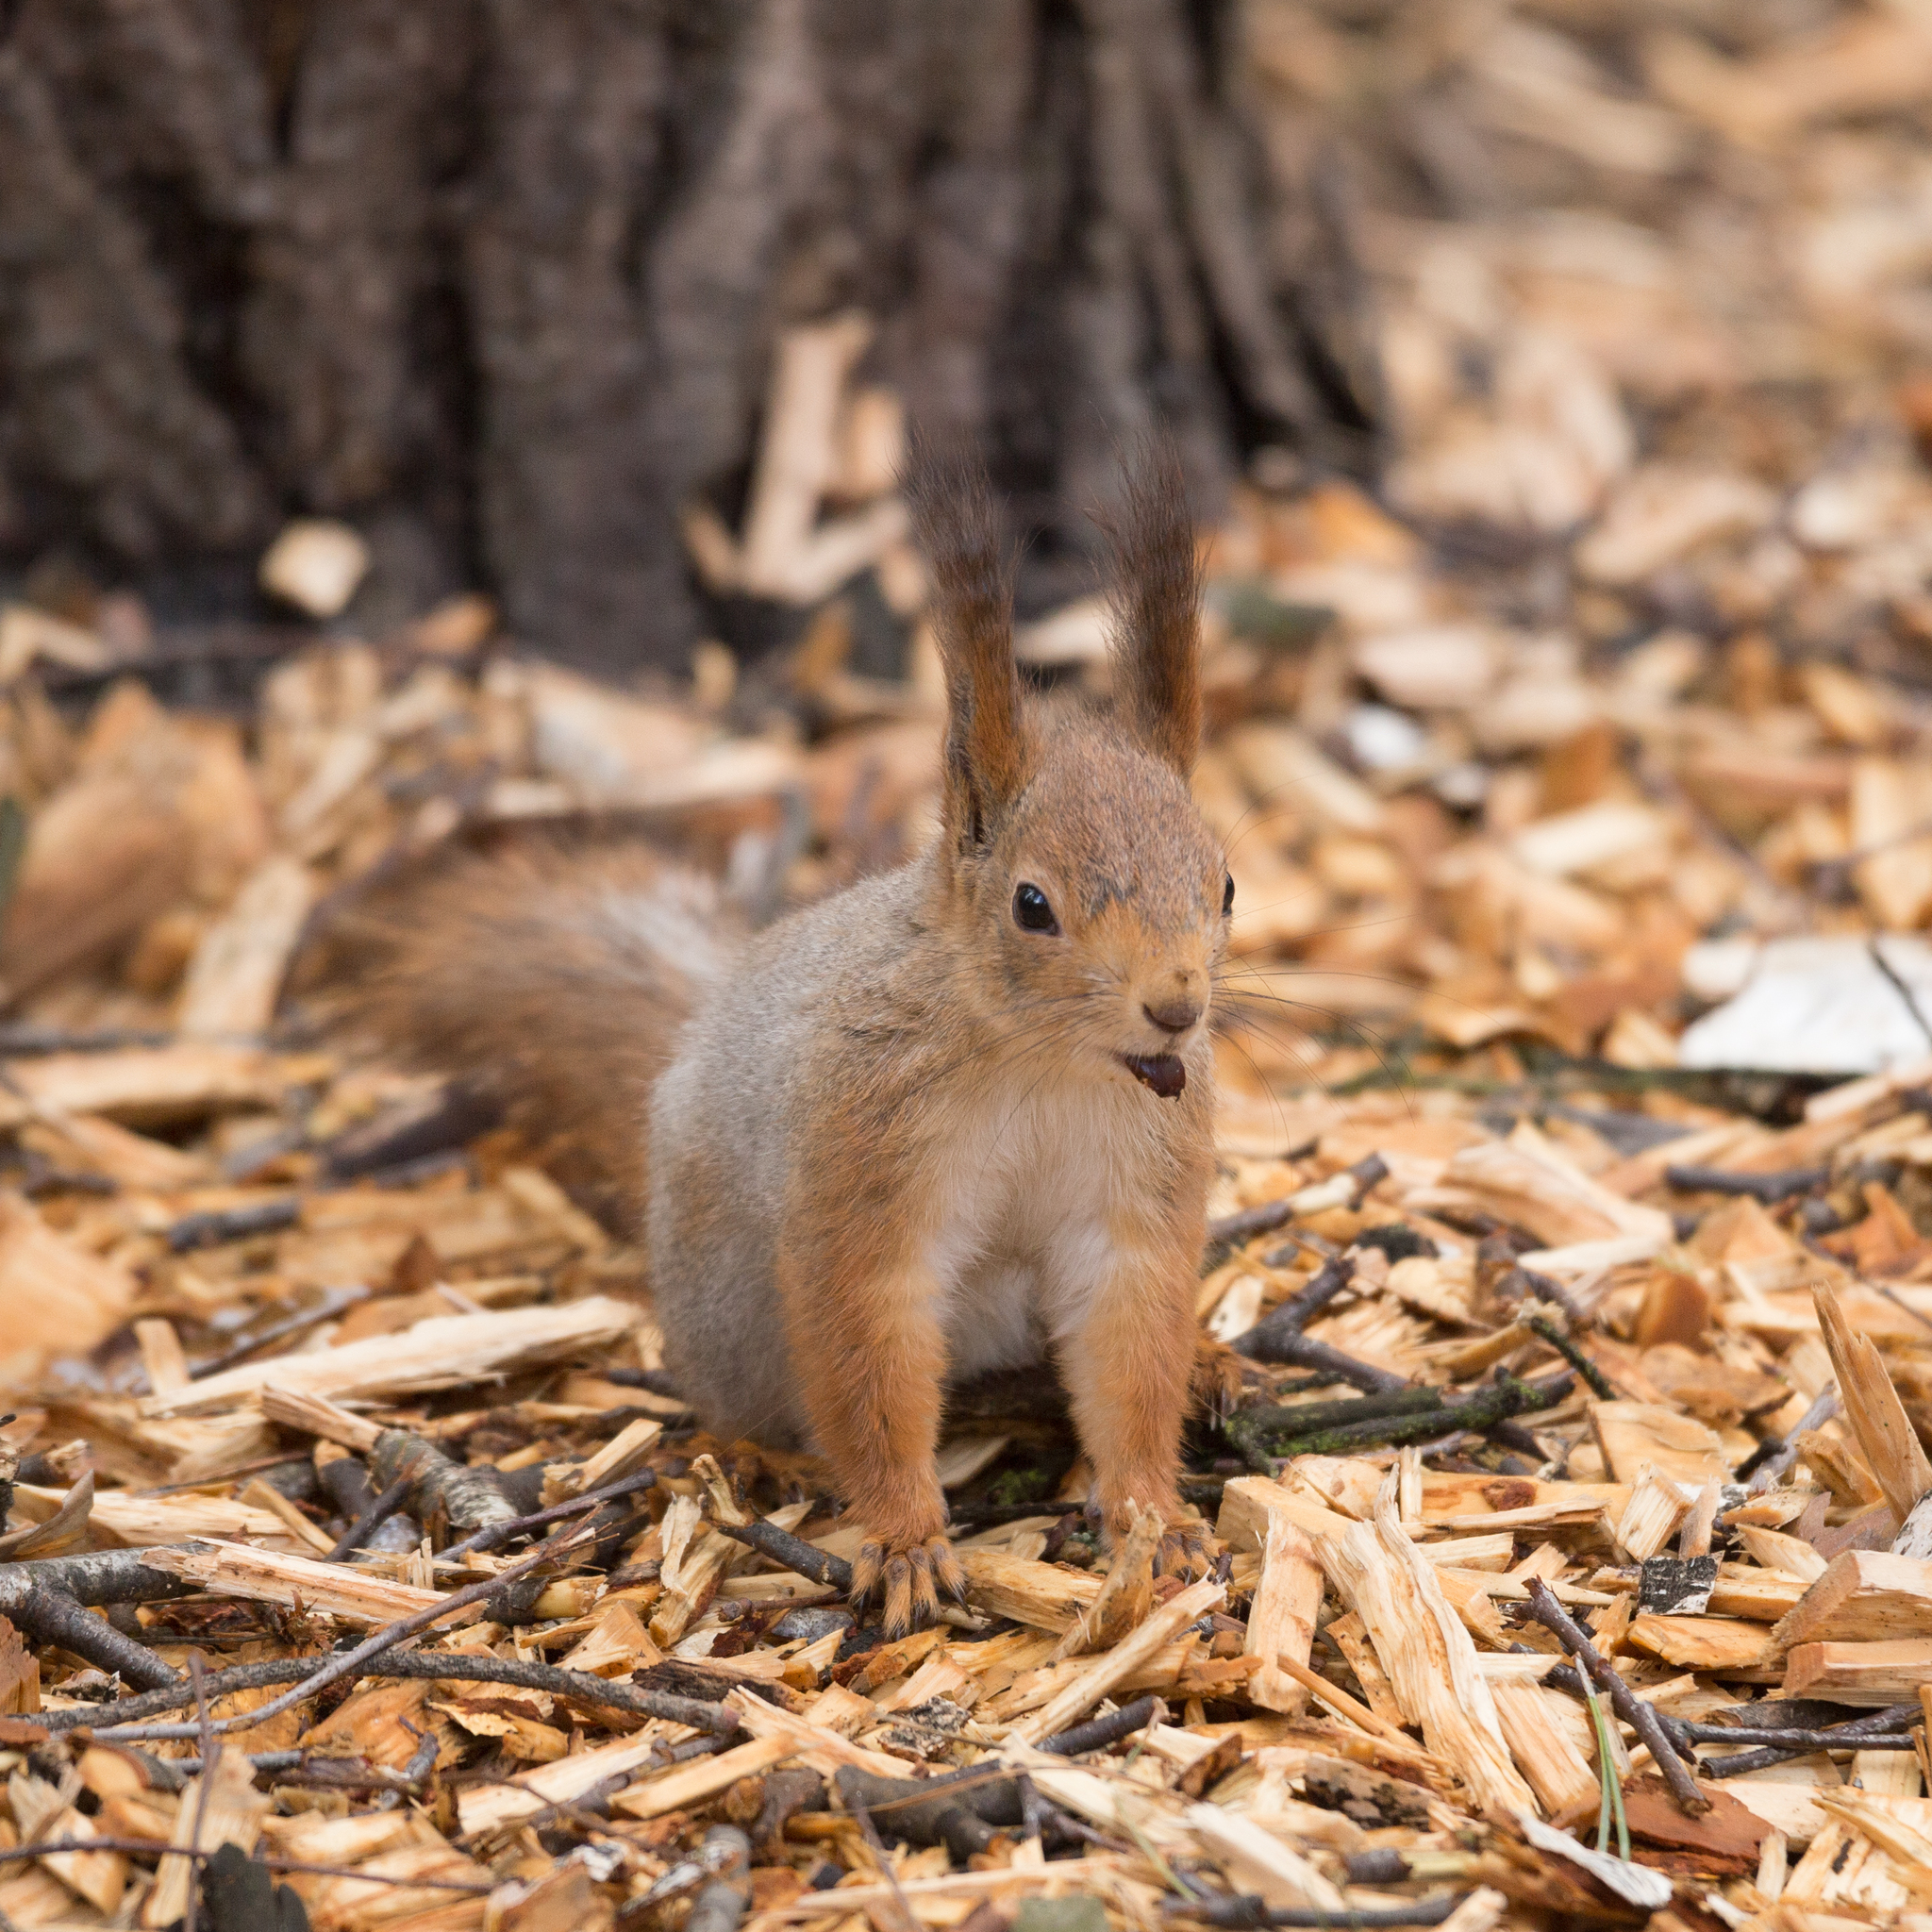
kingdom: Animalia
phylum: Chordata
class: Mammalia
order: Rodentia
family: Sciuridae
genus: Sciurus
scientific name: Sciurus vulgaris
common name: Eurasian red squirrel
